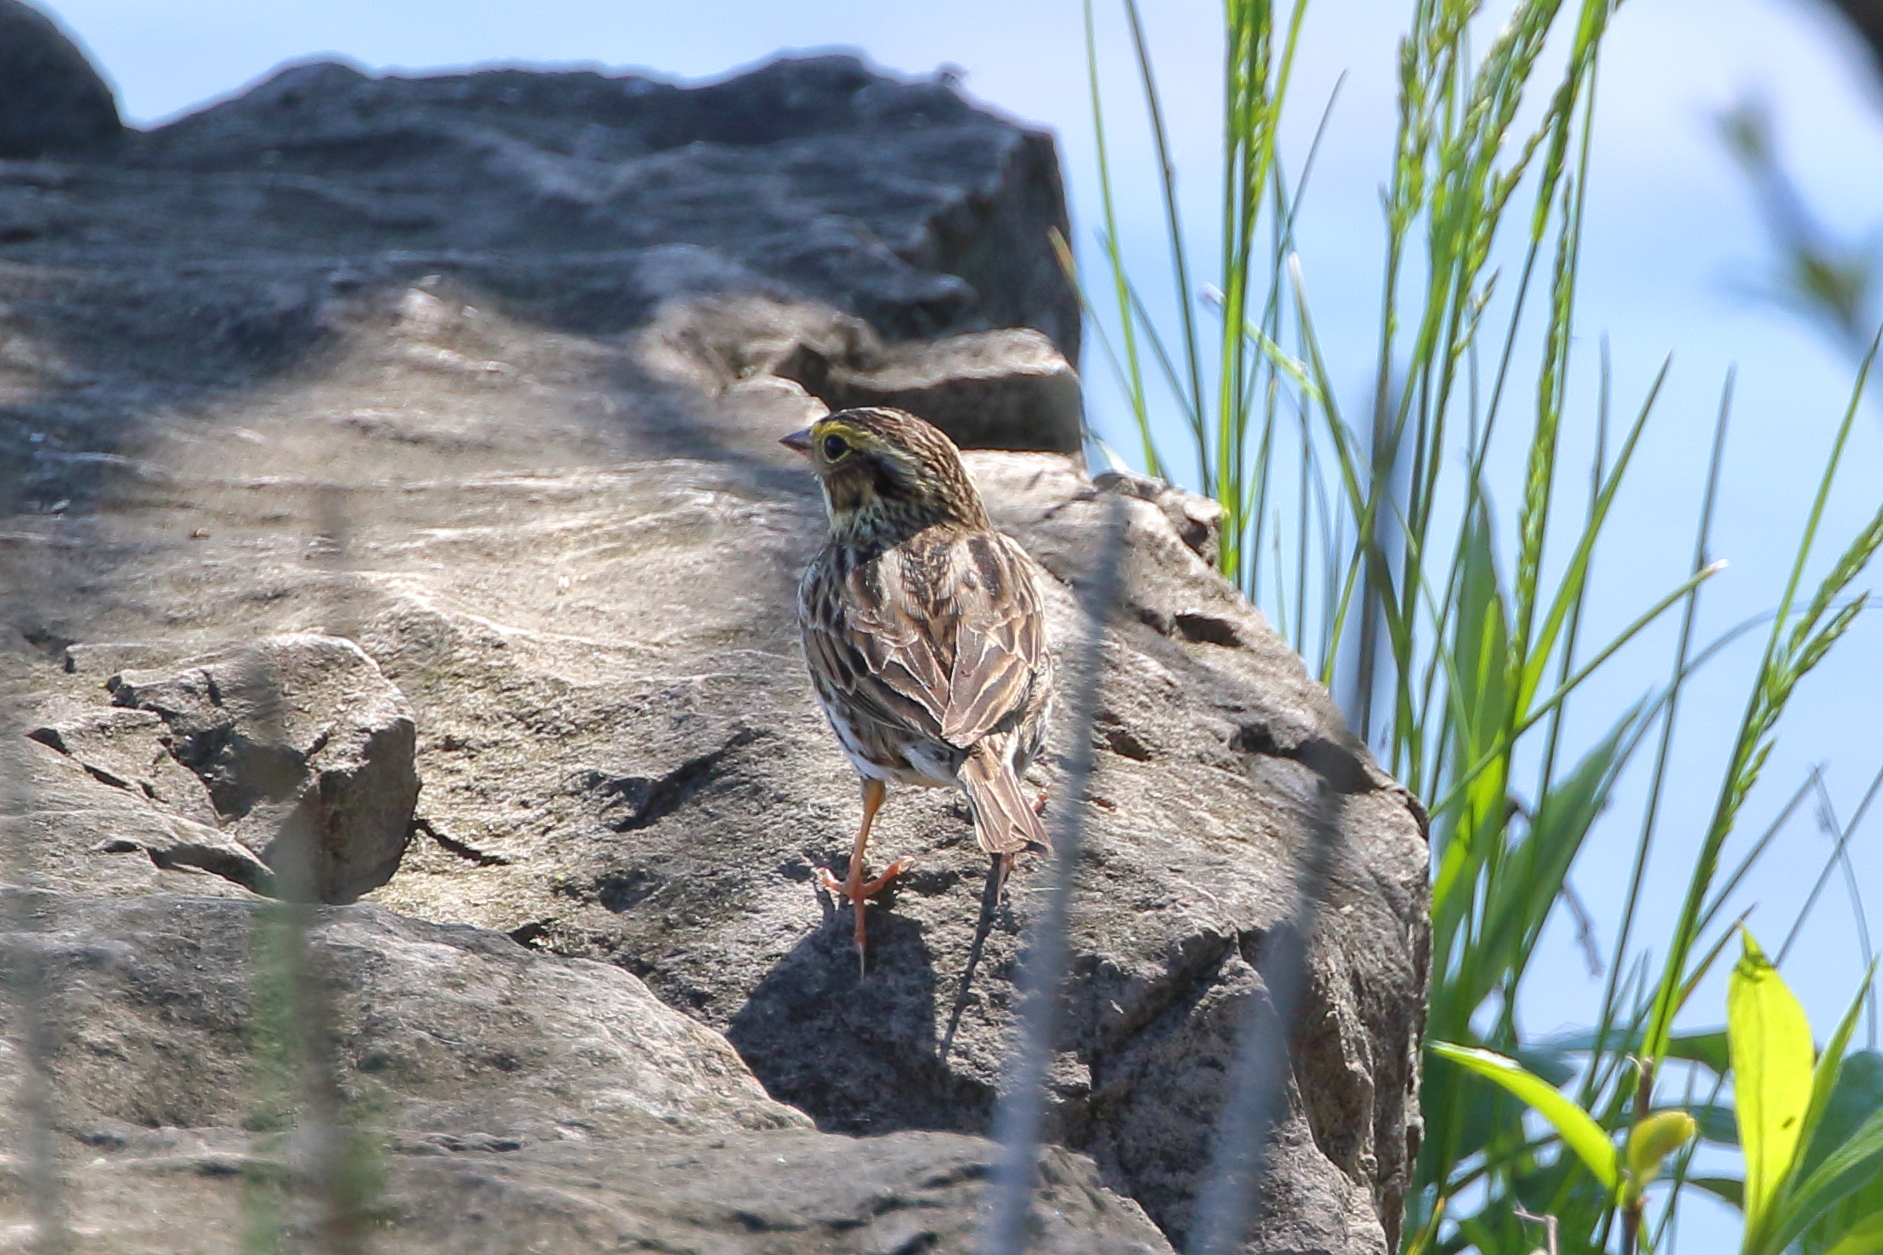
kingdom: Animalia
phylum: Chordata
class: Aves
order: Passeriformes
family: Passerellidae
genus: Passerculus
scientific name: Passerculus sandwichensis
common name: Savannah sparrow
